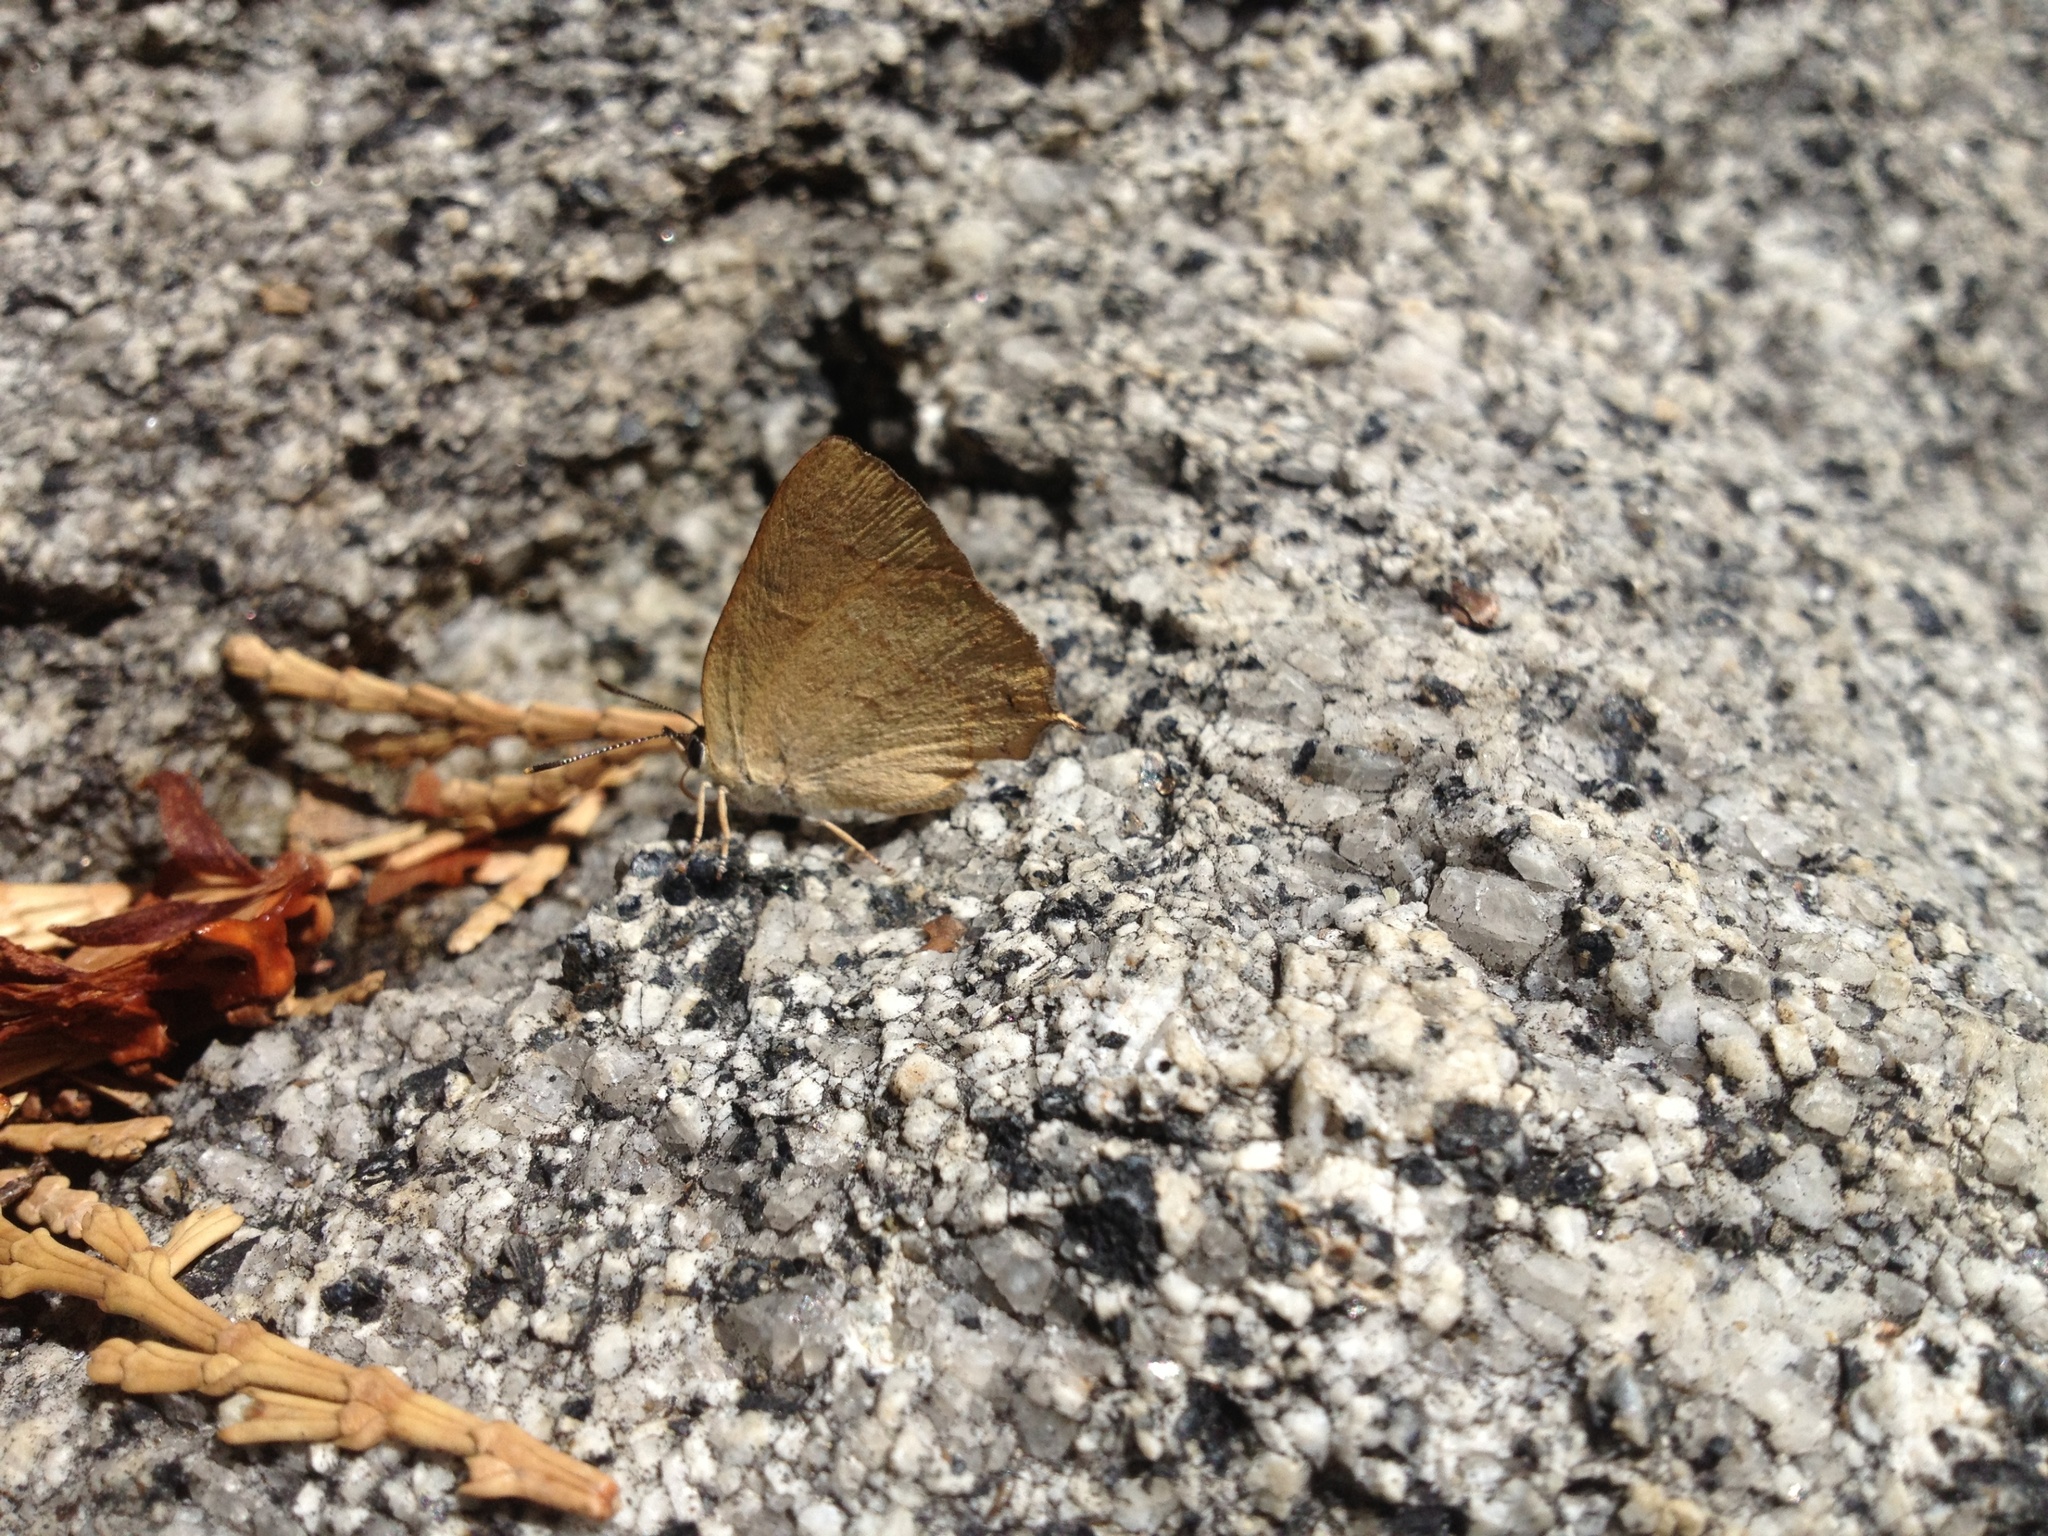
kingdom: Animalia
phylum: Arthropoda
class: Insecta
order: Lepidoptera
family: Lycaenidae
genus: Habrodais
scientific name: Habrodais grunus
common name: Golden hairstreak
